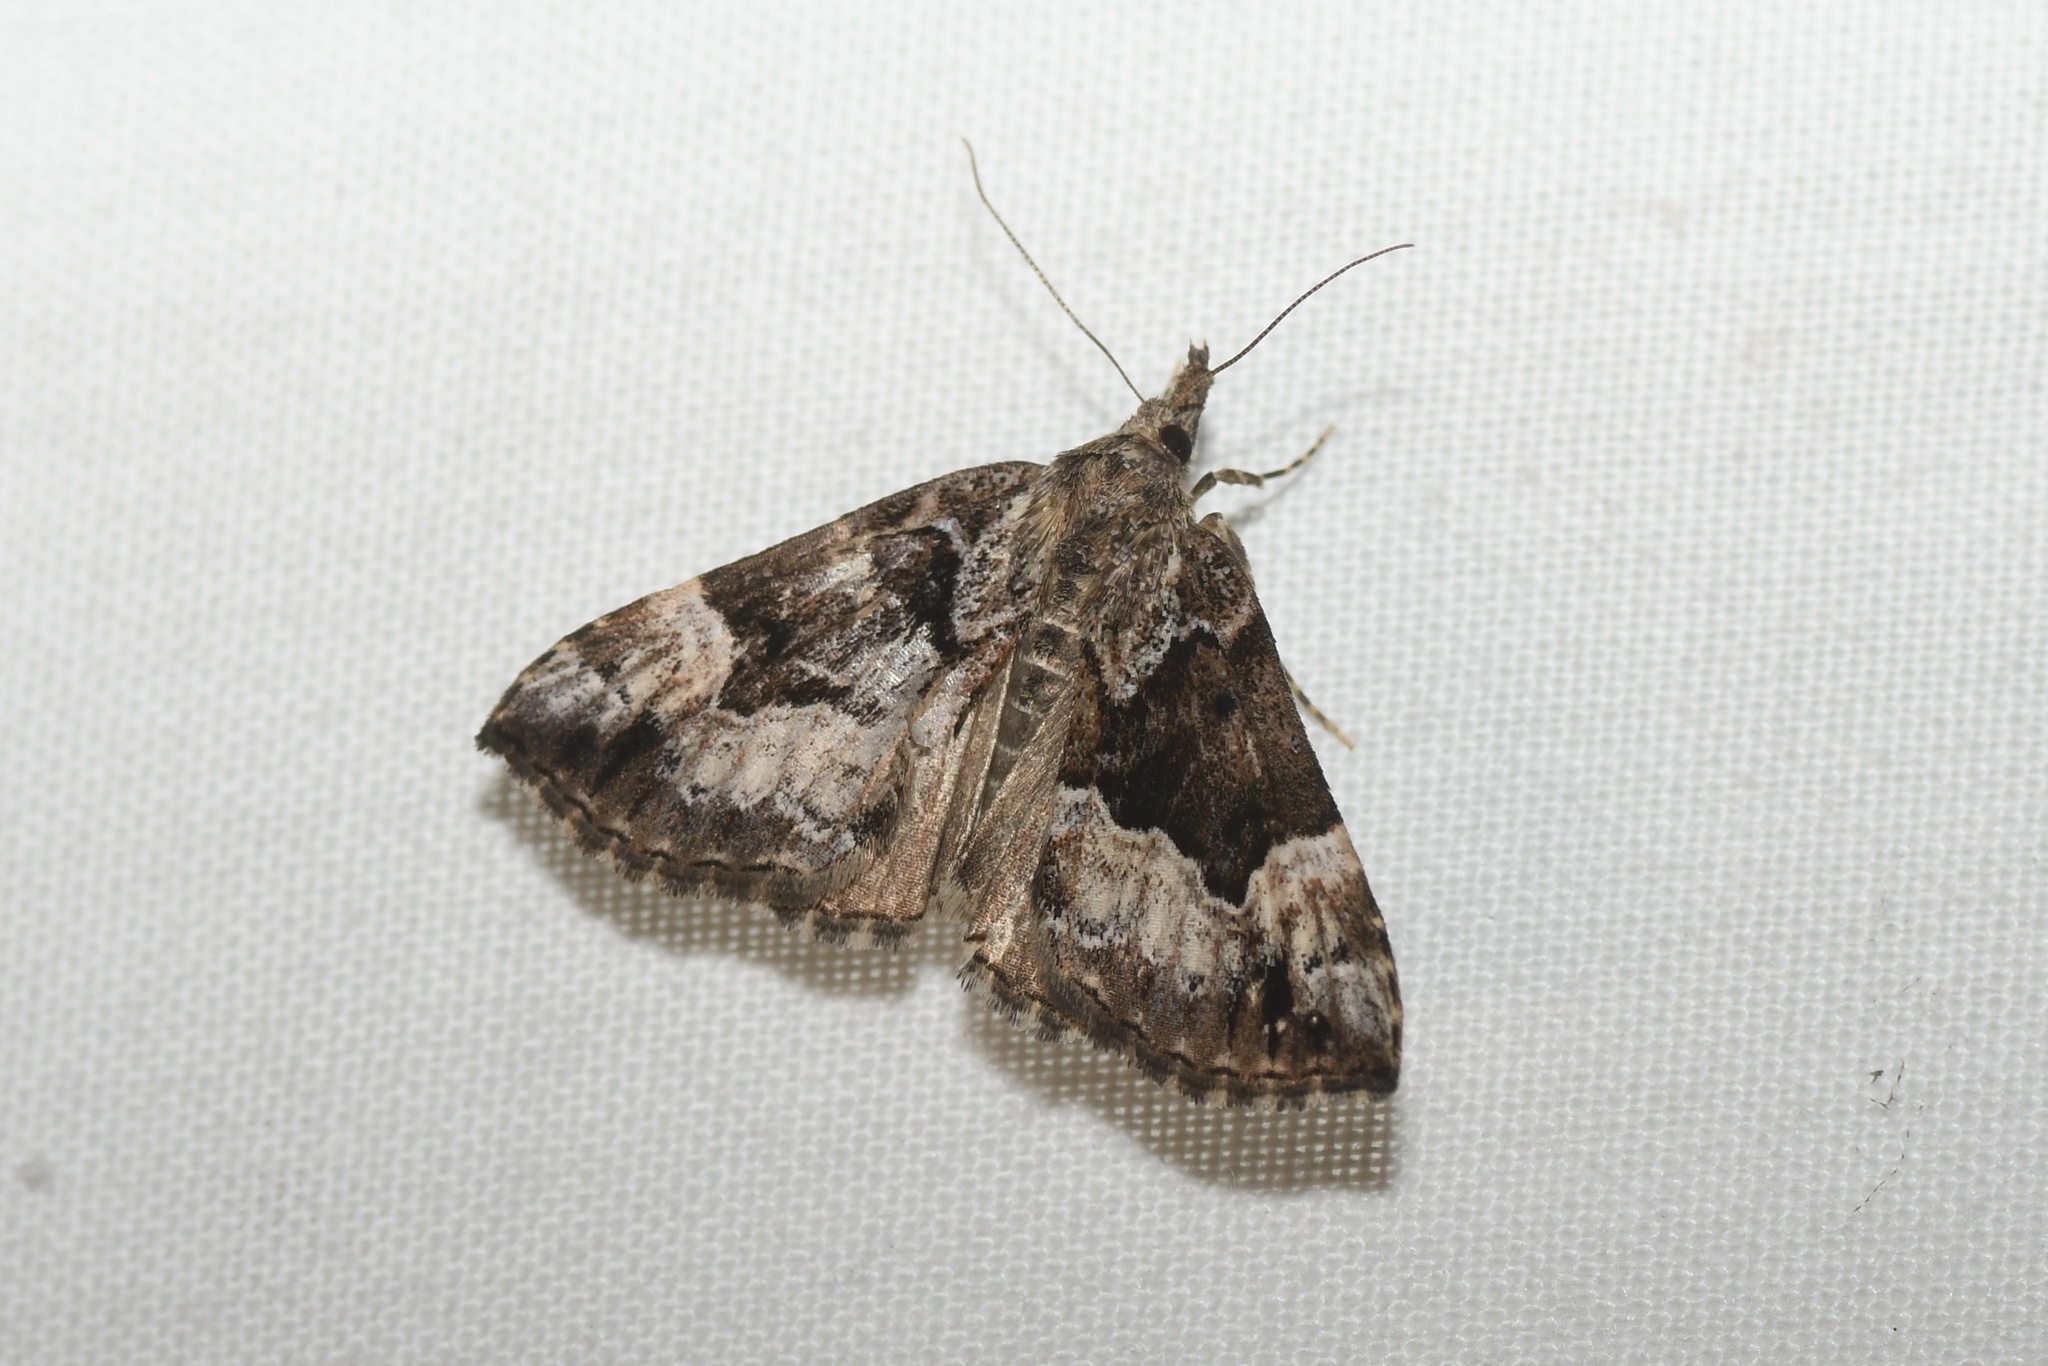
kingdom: Animalia
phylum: Arthropoda
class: Insecta
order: Lepidoptera
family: Erebidae
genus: Hypena
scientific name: Hypena palparia
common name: Mottled bomolocha moth
